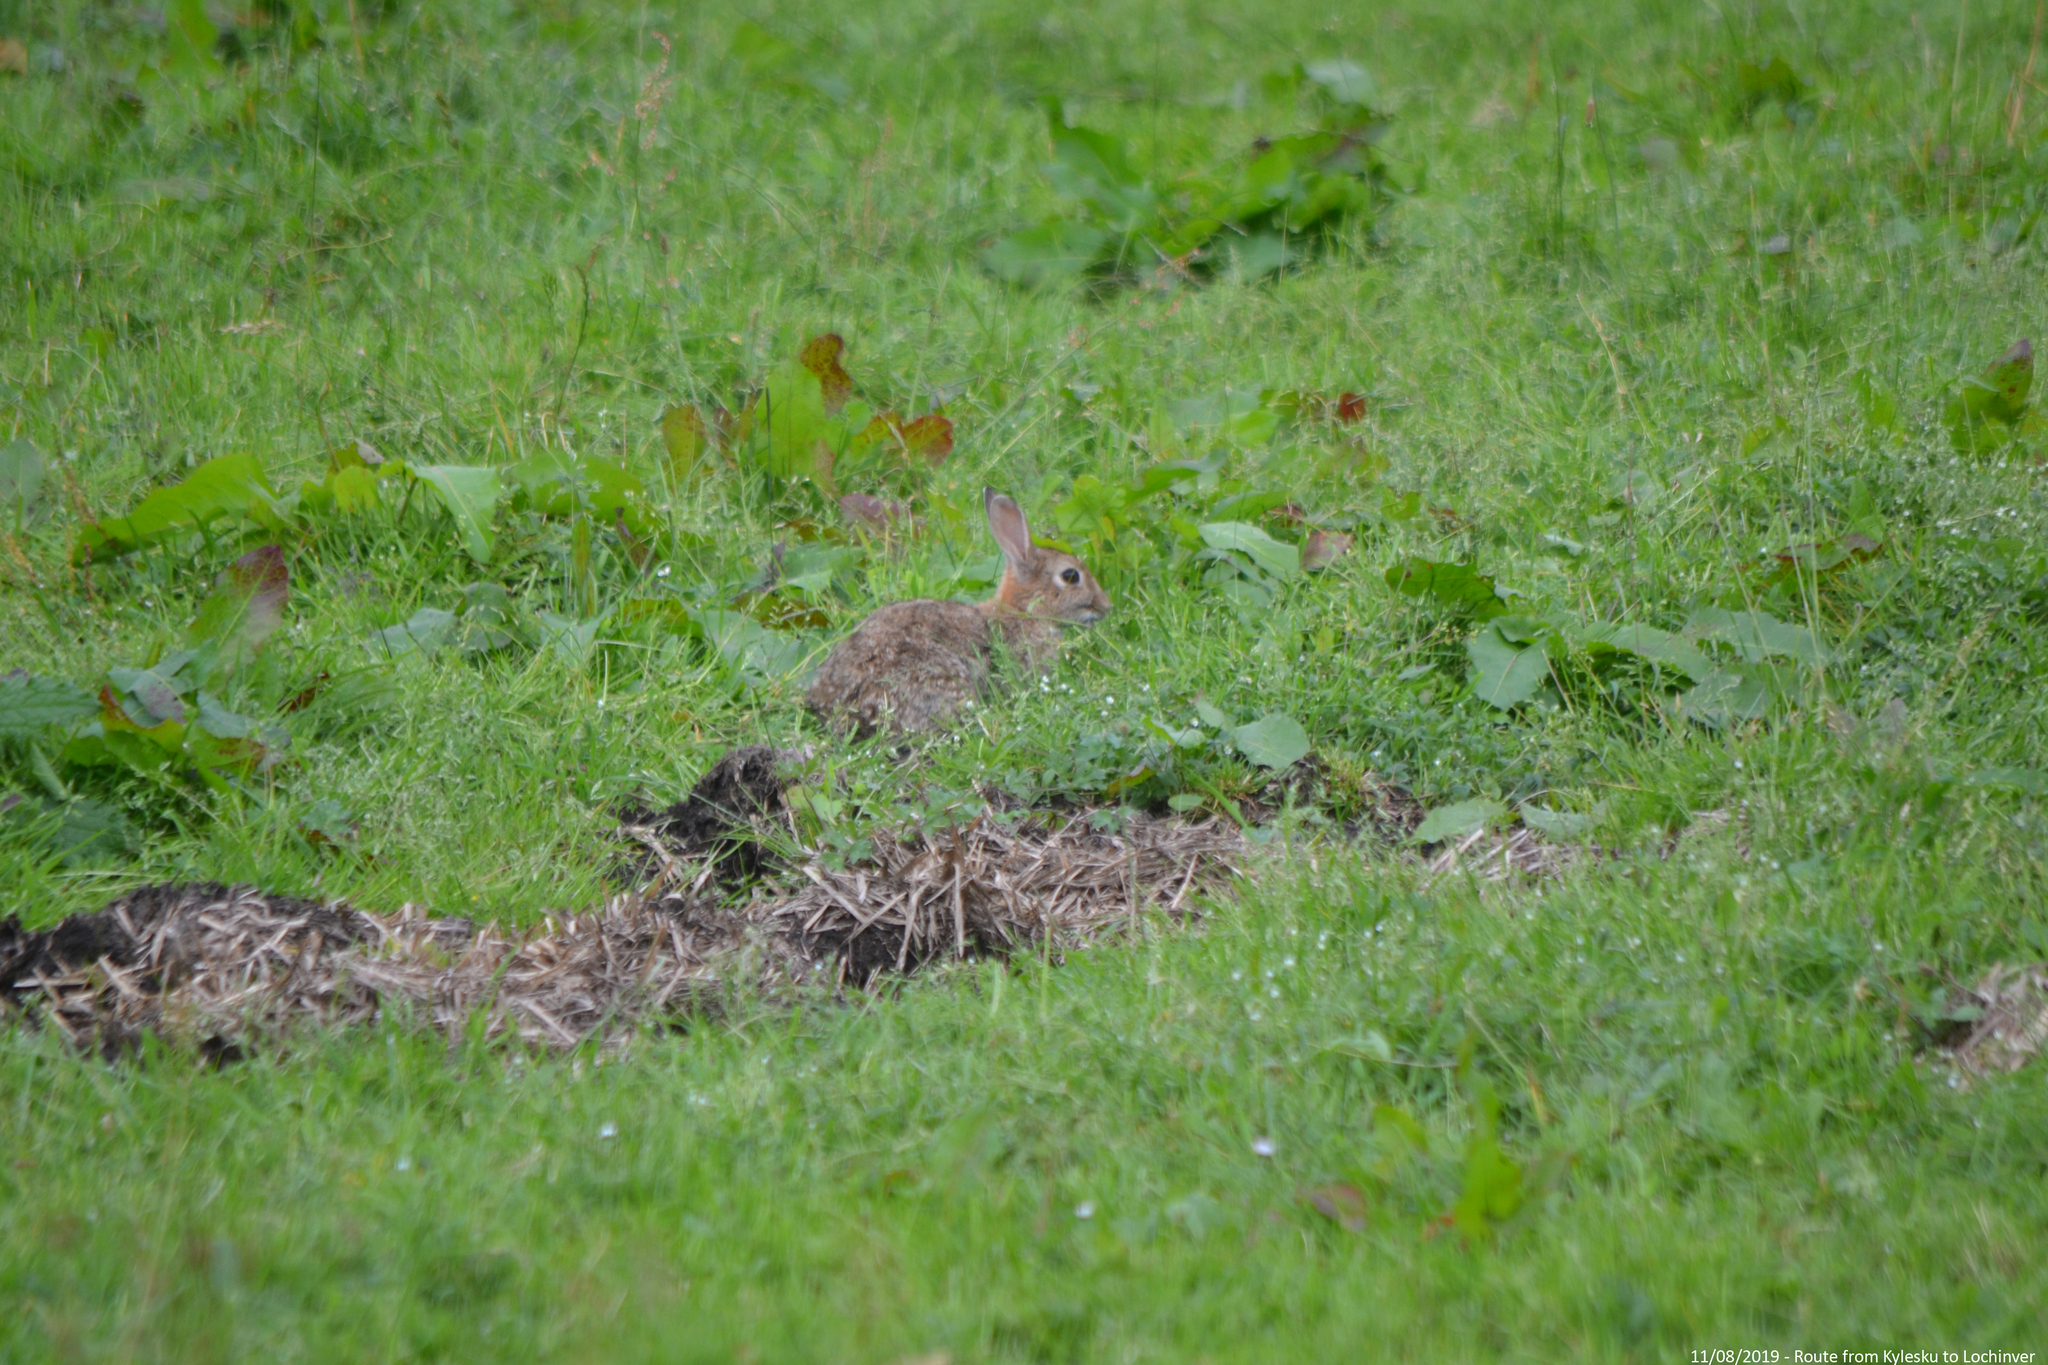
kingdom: Animalia
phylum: Chordata
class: Mammalia
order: Lagomorpha
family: Leporidae
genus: Oryctolagus
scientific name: Oryctolagus cuniculus
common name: European rabbit
